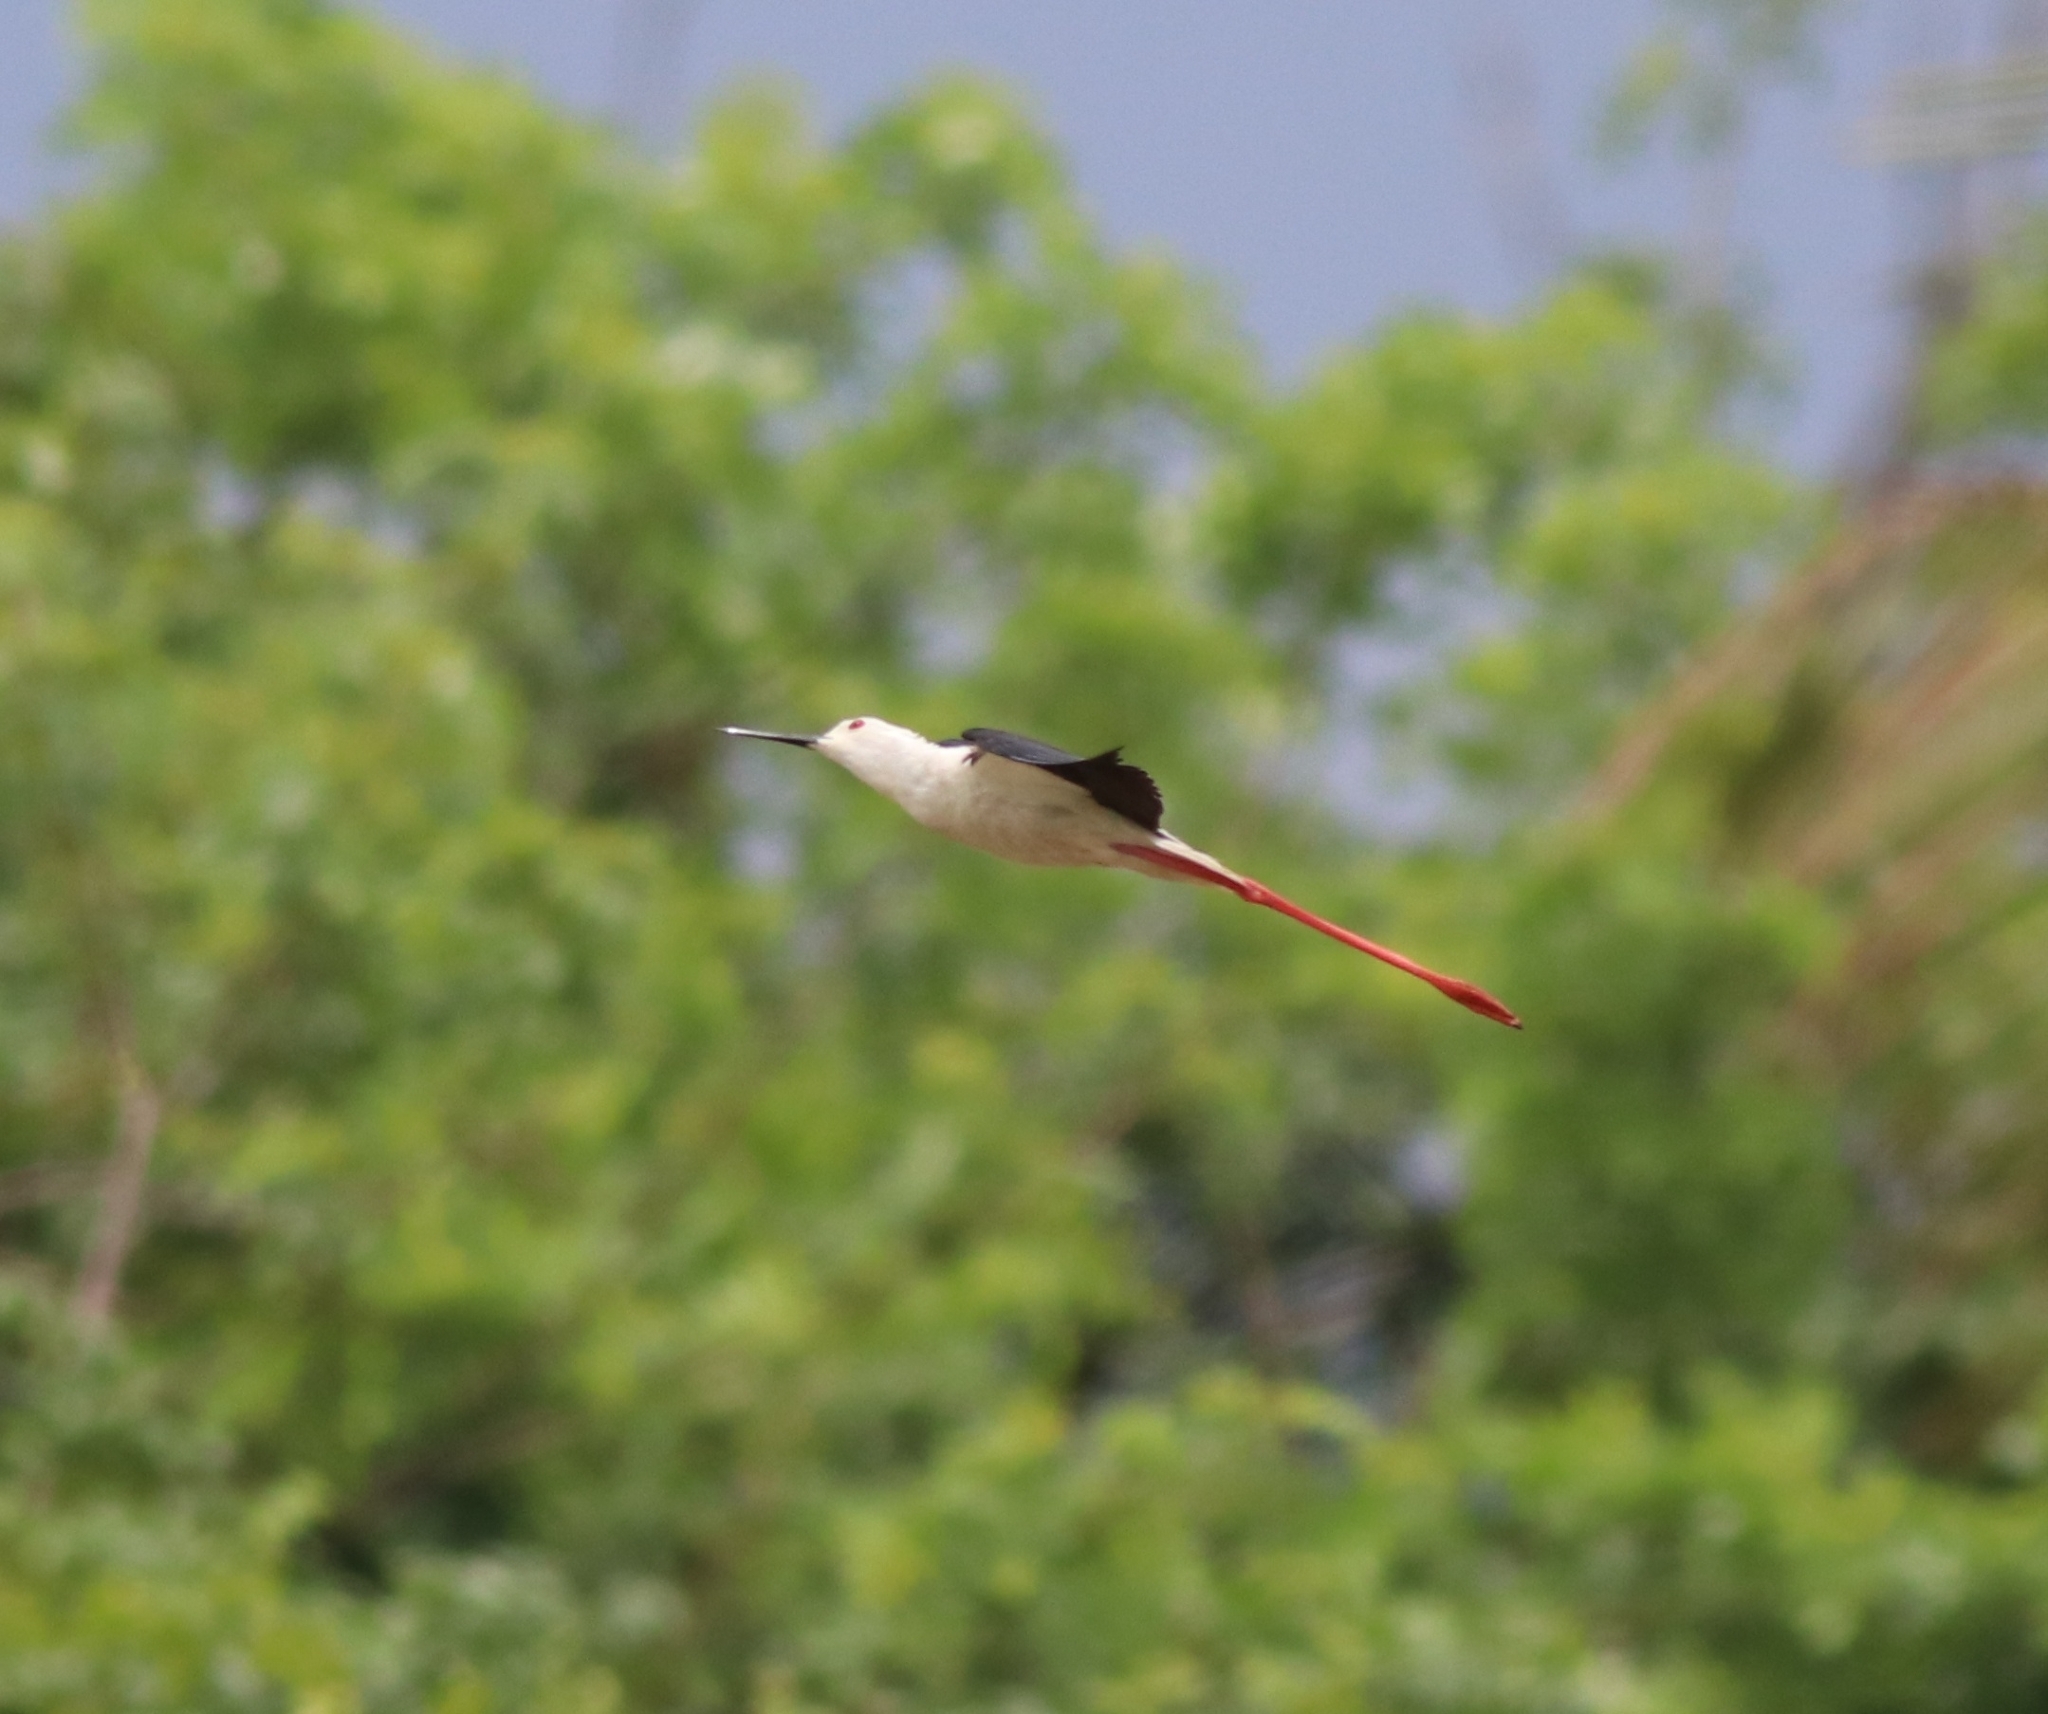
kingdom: Animalia
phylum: Chordata
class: Aves
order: Charadriiformes
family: Recurvirostridae
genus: Himantopus
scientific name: Himantopus himantopus
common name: Black-winged stilt
